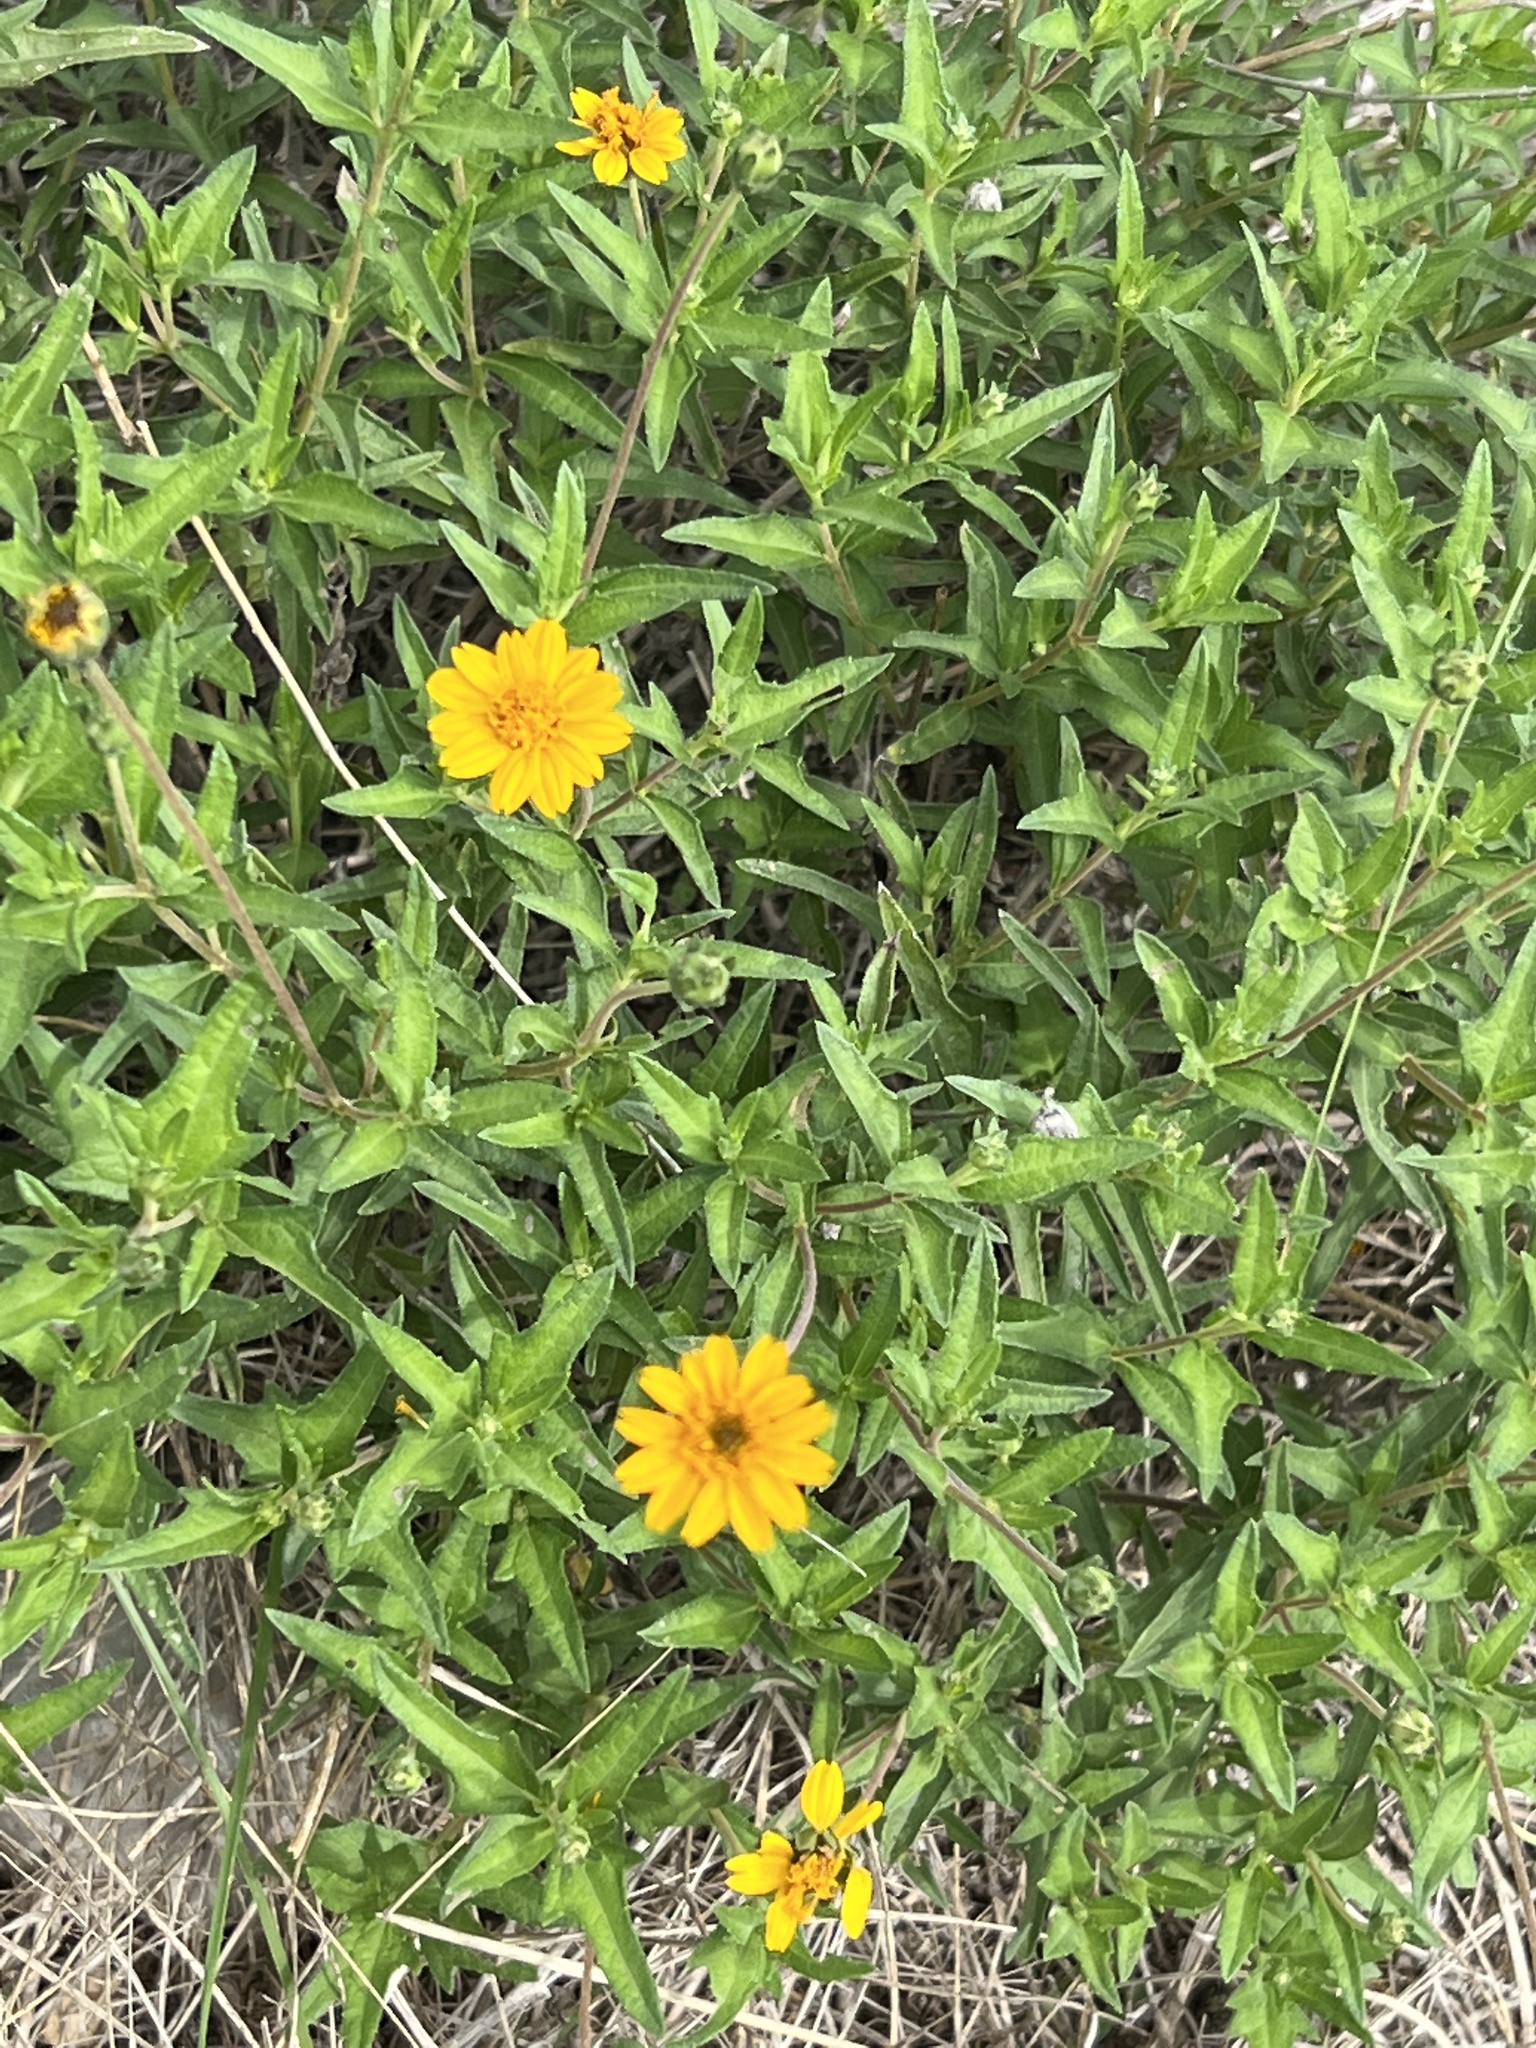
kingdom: Plantae
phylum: Tracheophyta
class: Magnoliopsida
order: Asterales
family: Asteraceae
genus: Wedelia
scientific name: Wedelia acapulcensis
